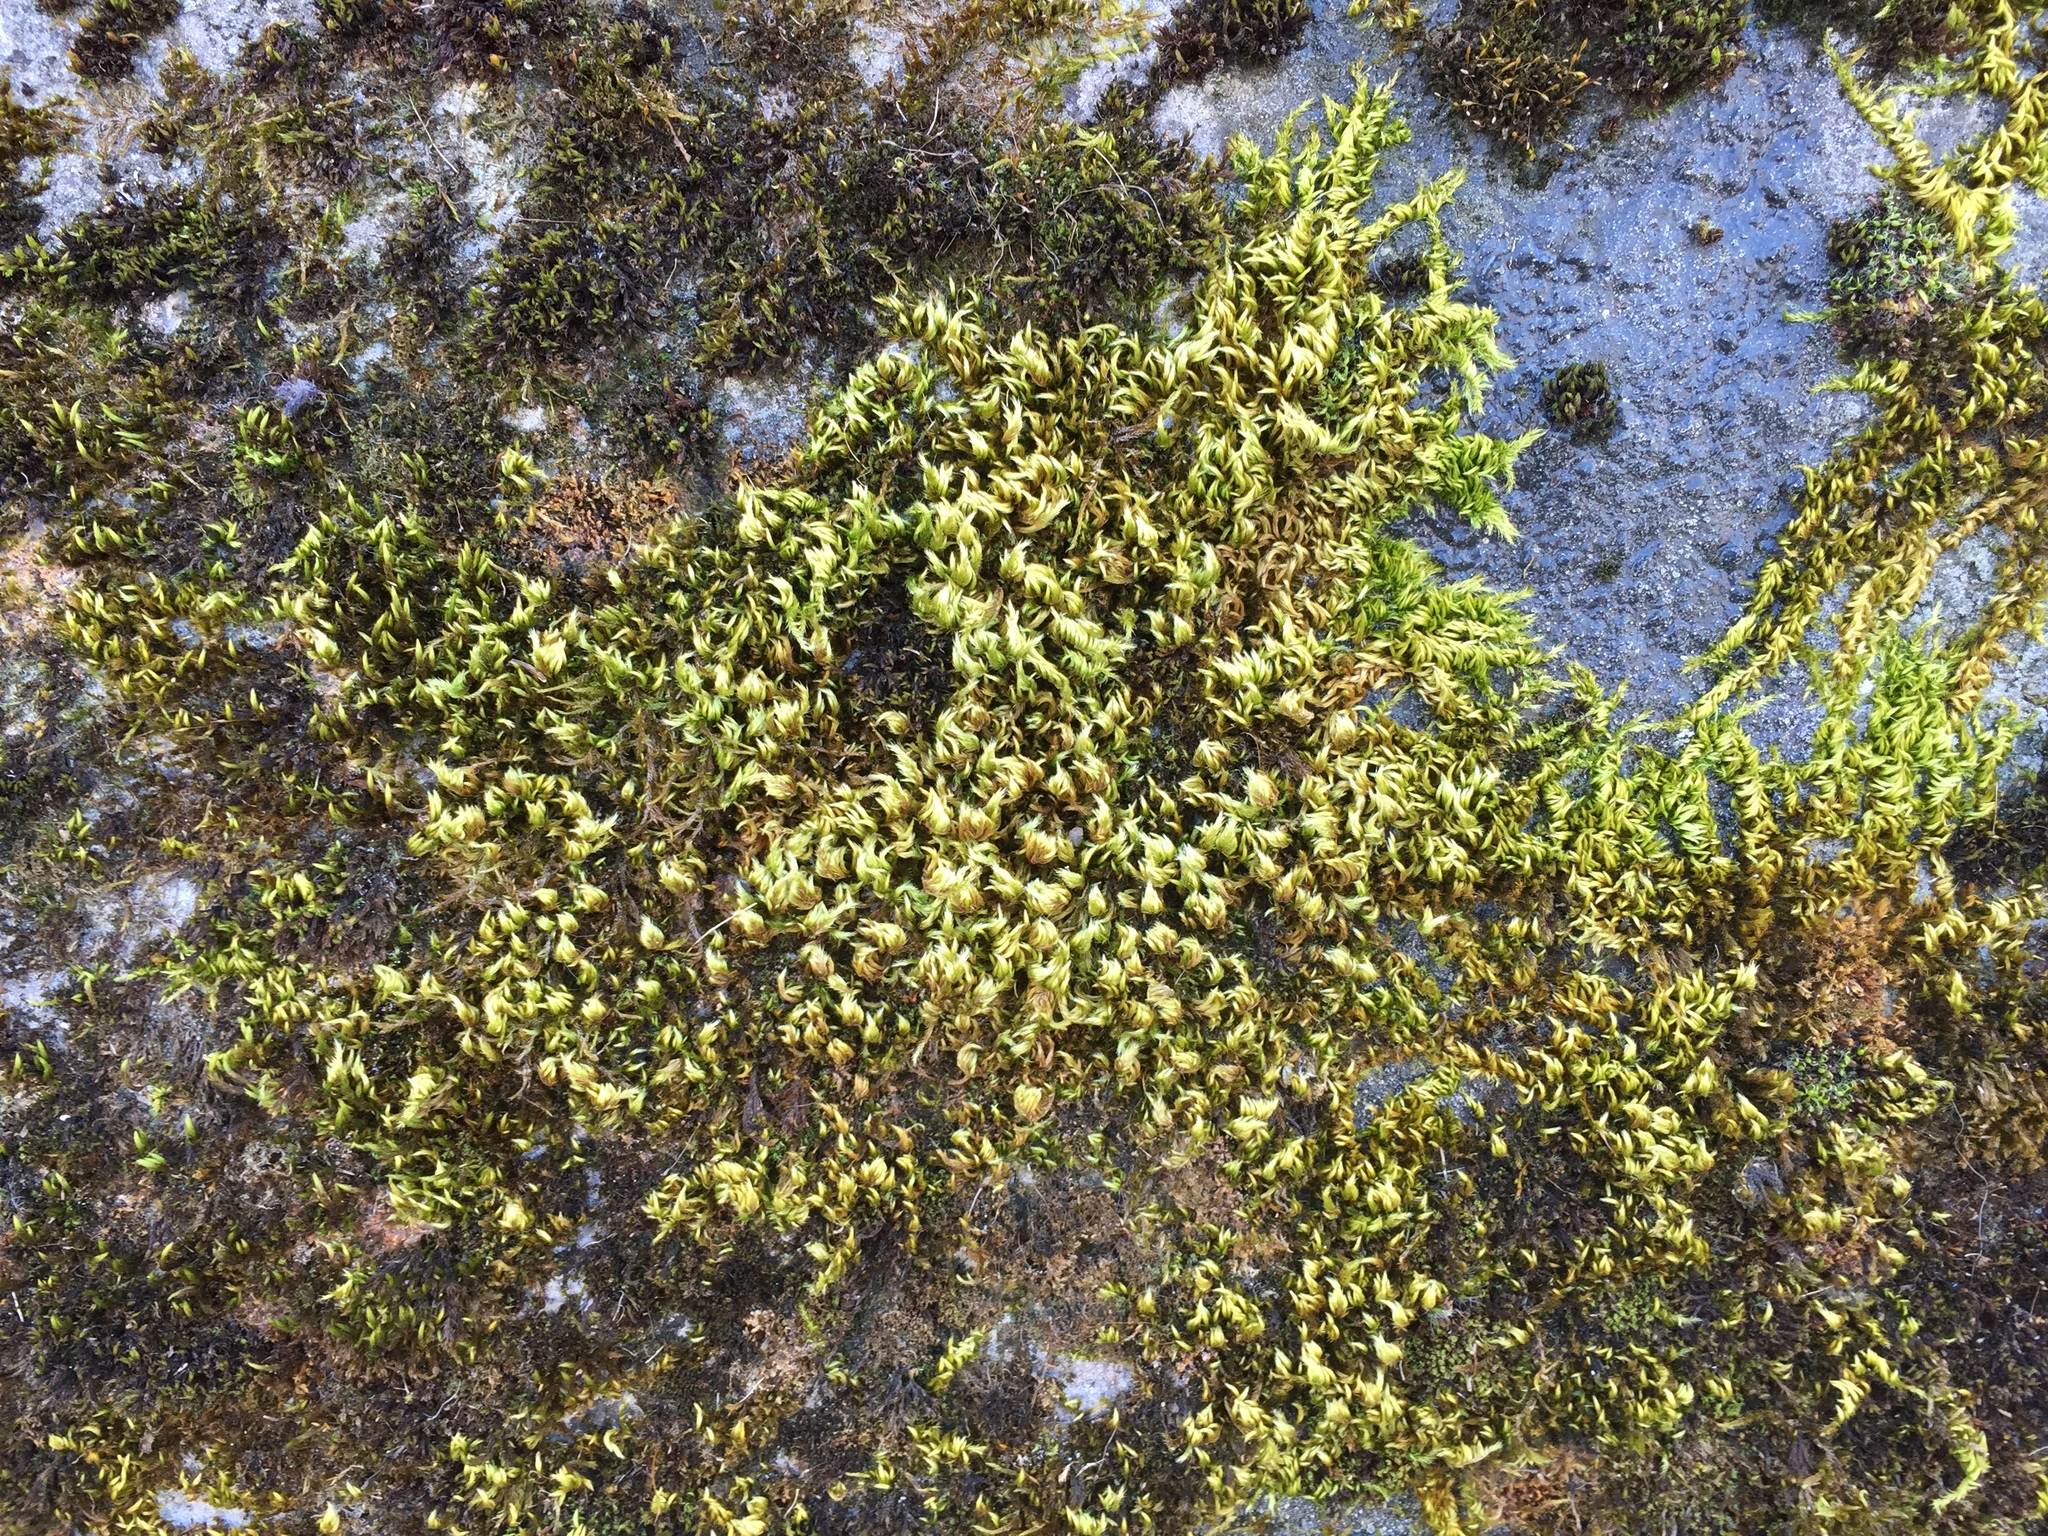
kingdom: Plantae
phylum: Bryophyta
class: Bryopsida
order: Hypnales
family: Brachytheciaceae
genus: Homalothecium
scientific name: Homalothecium sericeum
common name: Silky wall feather-moss
